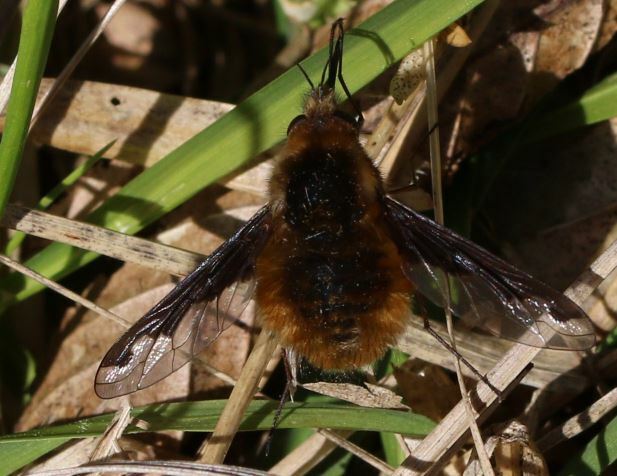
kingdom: Animalia
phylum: Arthropoda
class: Insecta
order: Diptera
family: Bombyliidae
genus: Bombylius
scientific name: Bombylius major
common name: Bee fly
